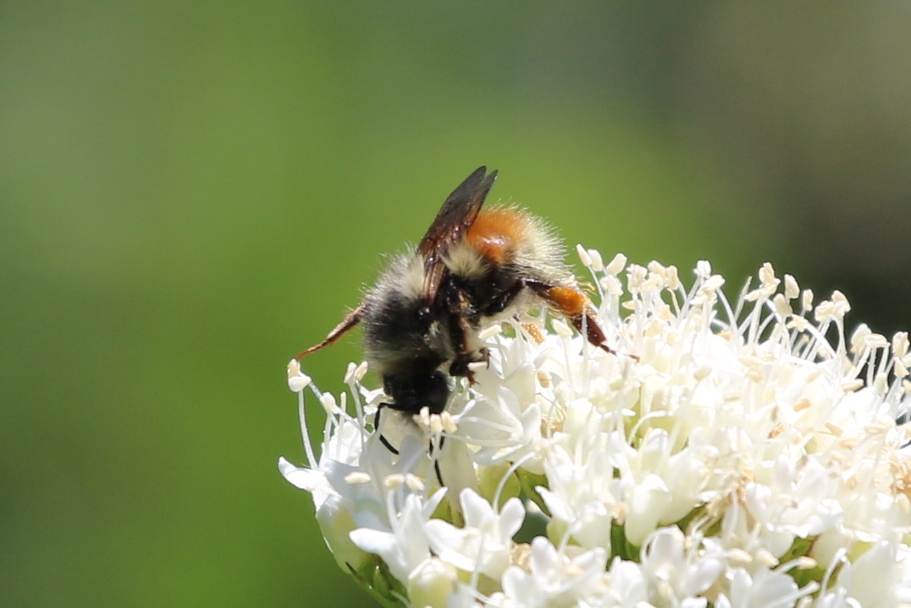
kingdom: Animalia
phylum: Arthropoda
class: Insecta
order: Hymenoptera
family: Apidae
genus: Bombus
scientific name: Bombus sylvicola
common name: Forest bumble bee
